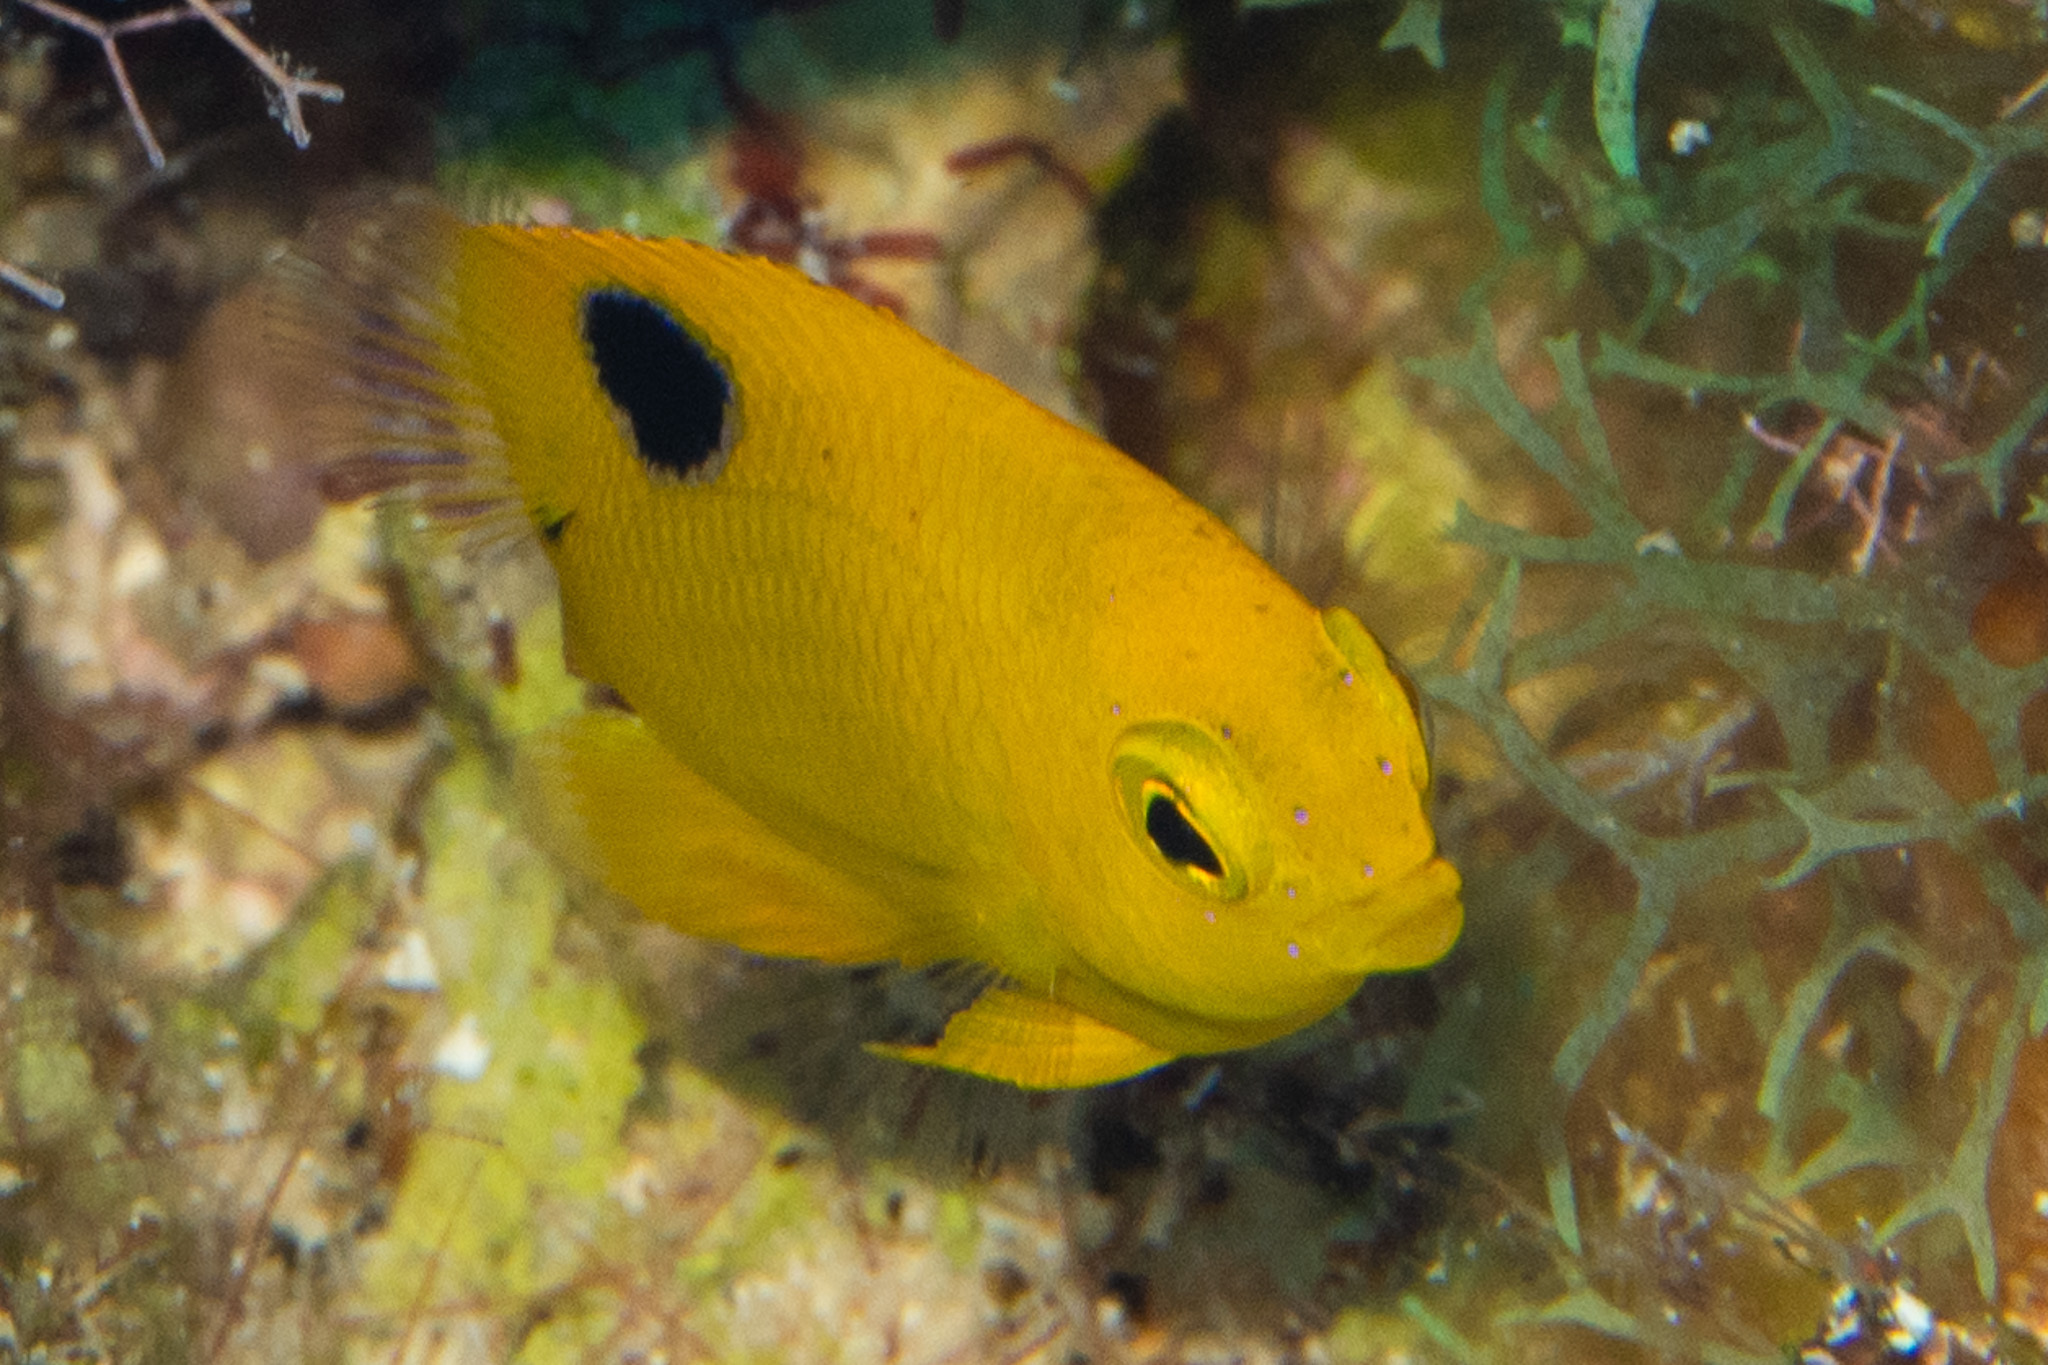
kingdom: Animalia
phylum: Chordata
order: Perciformes
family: Pomacentridae
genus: Stegastes
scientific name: Stegastes planifrons
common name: Threespot damselfish
